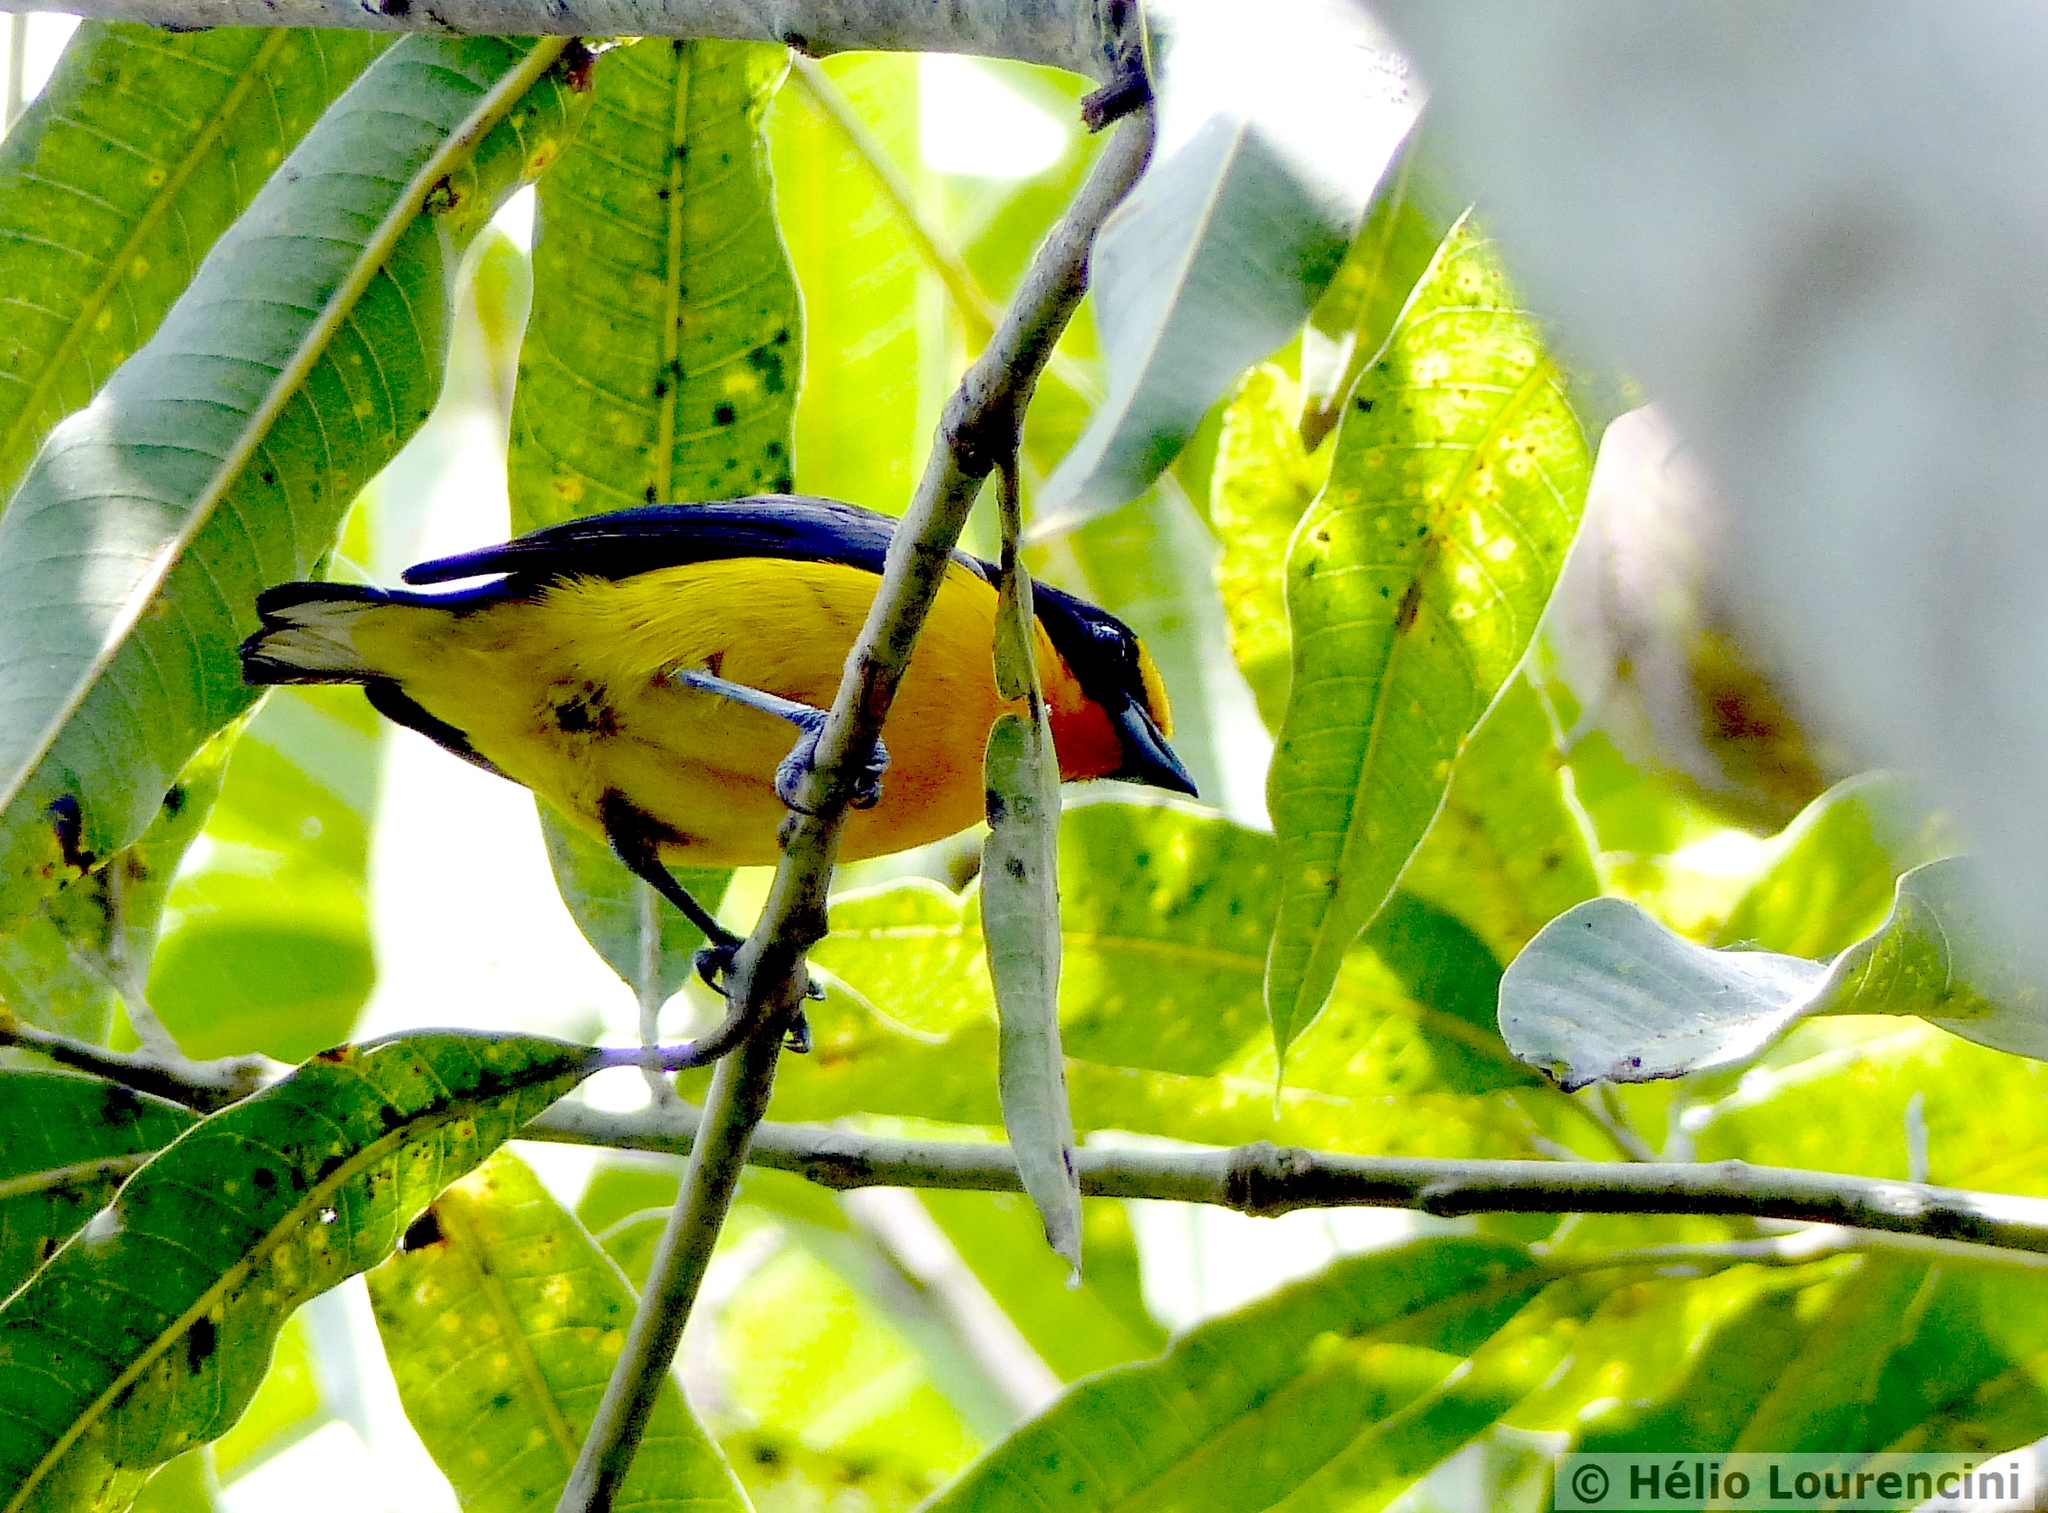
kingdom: Animalia
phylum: Chordata
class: Aves
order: Passeriformes
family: Fringillidae
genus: Euphonia
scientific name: Euphonia violacea
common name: Violaceous euphonia
